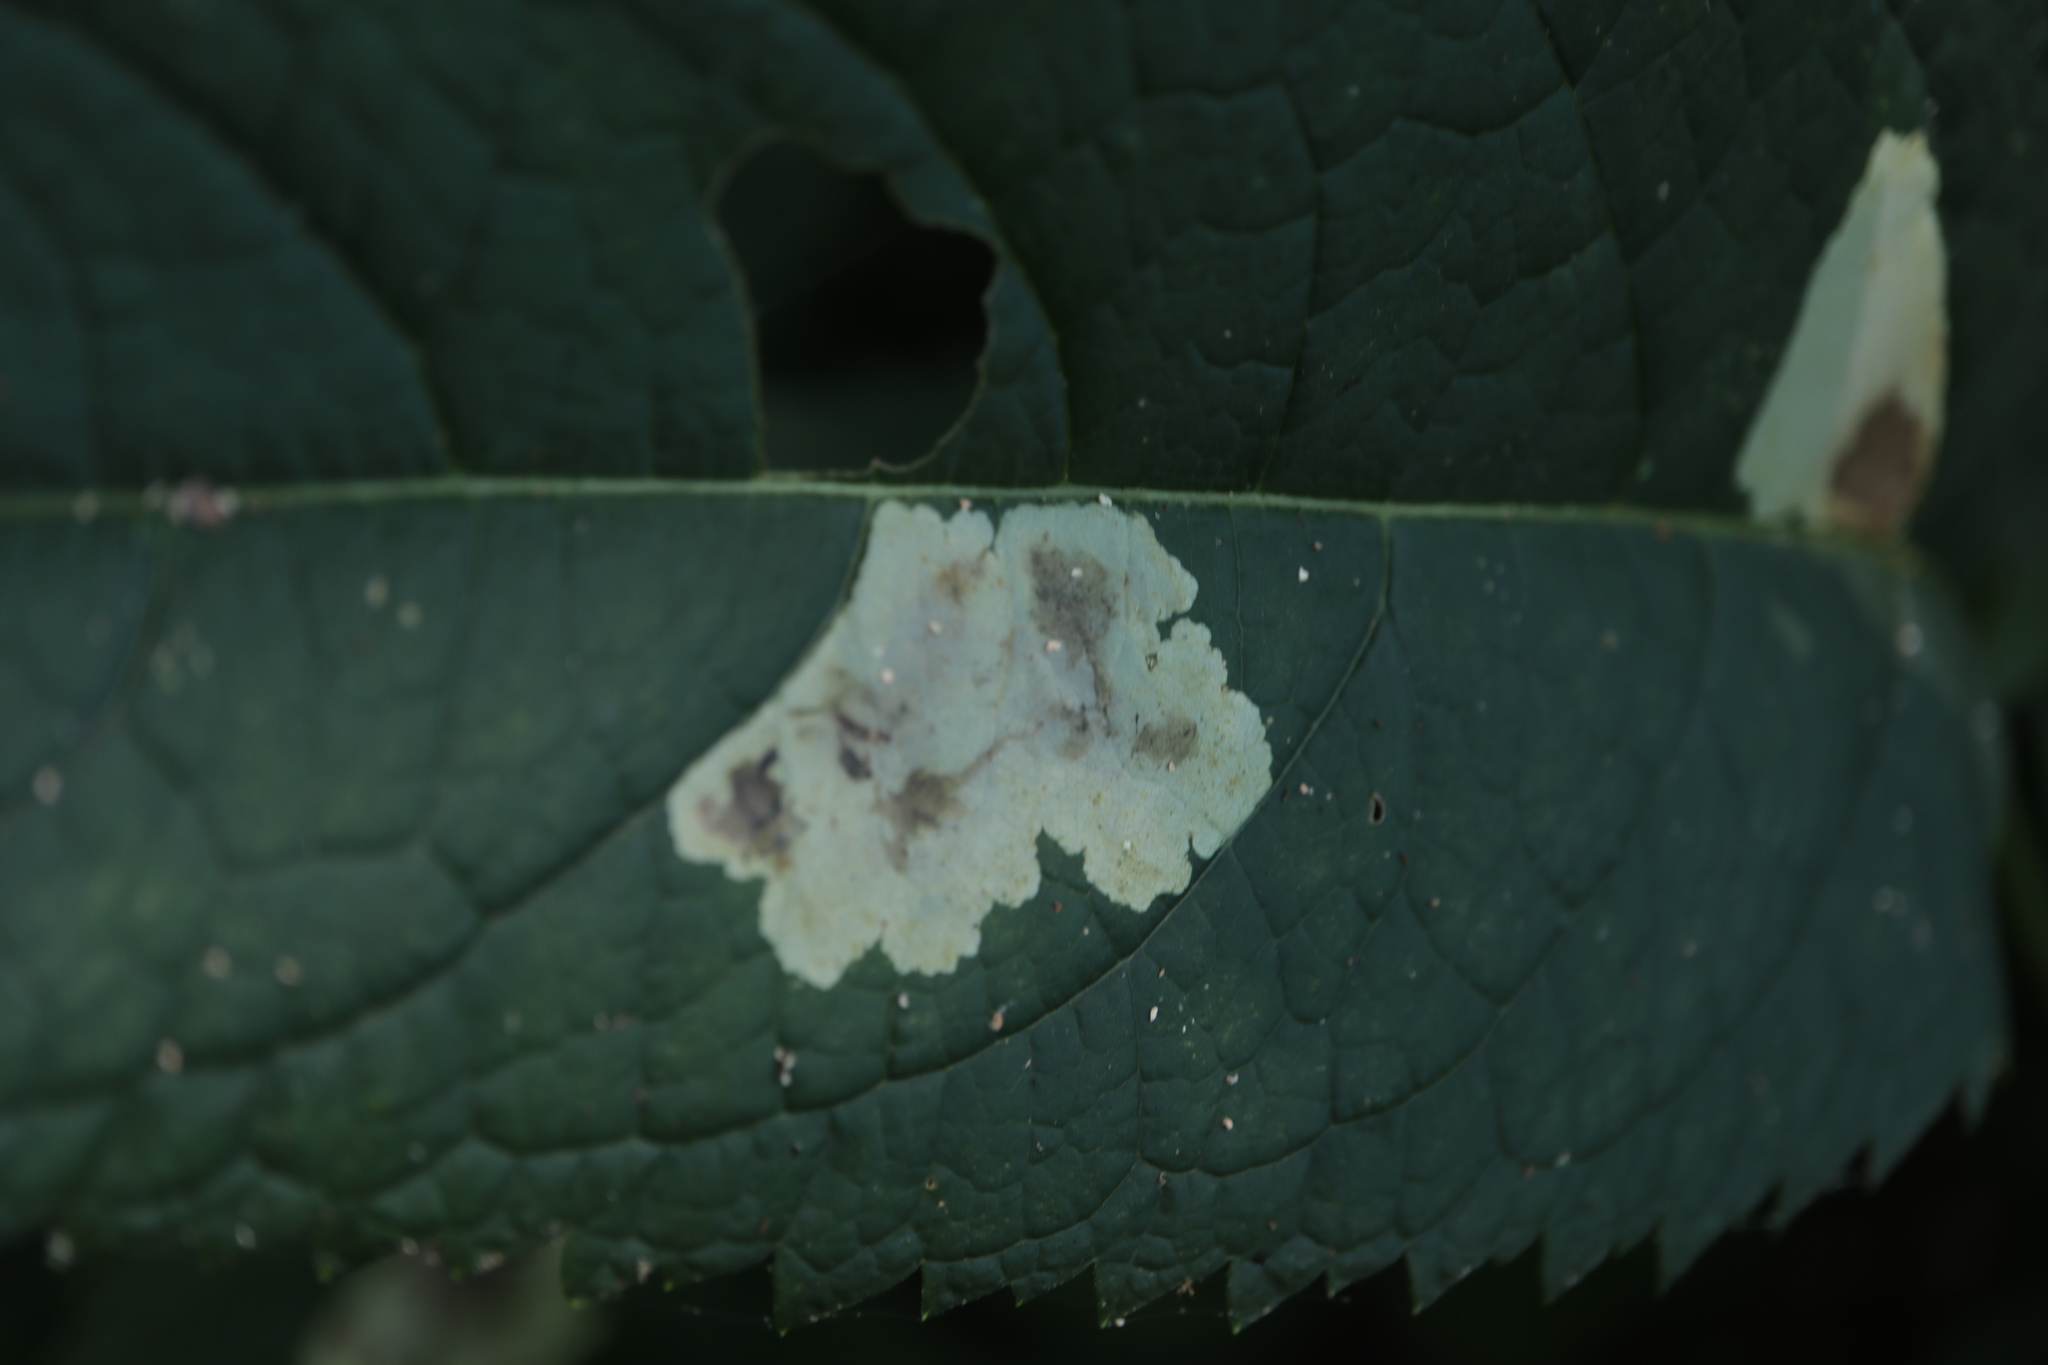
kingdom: Animalia
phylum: Arthropoda
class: Insecta
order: Diptera
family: Agromyzidae
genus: Calycomyza
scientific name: Calycomyza flavinotum
